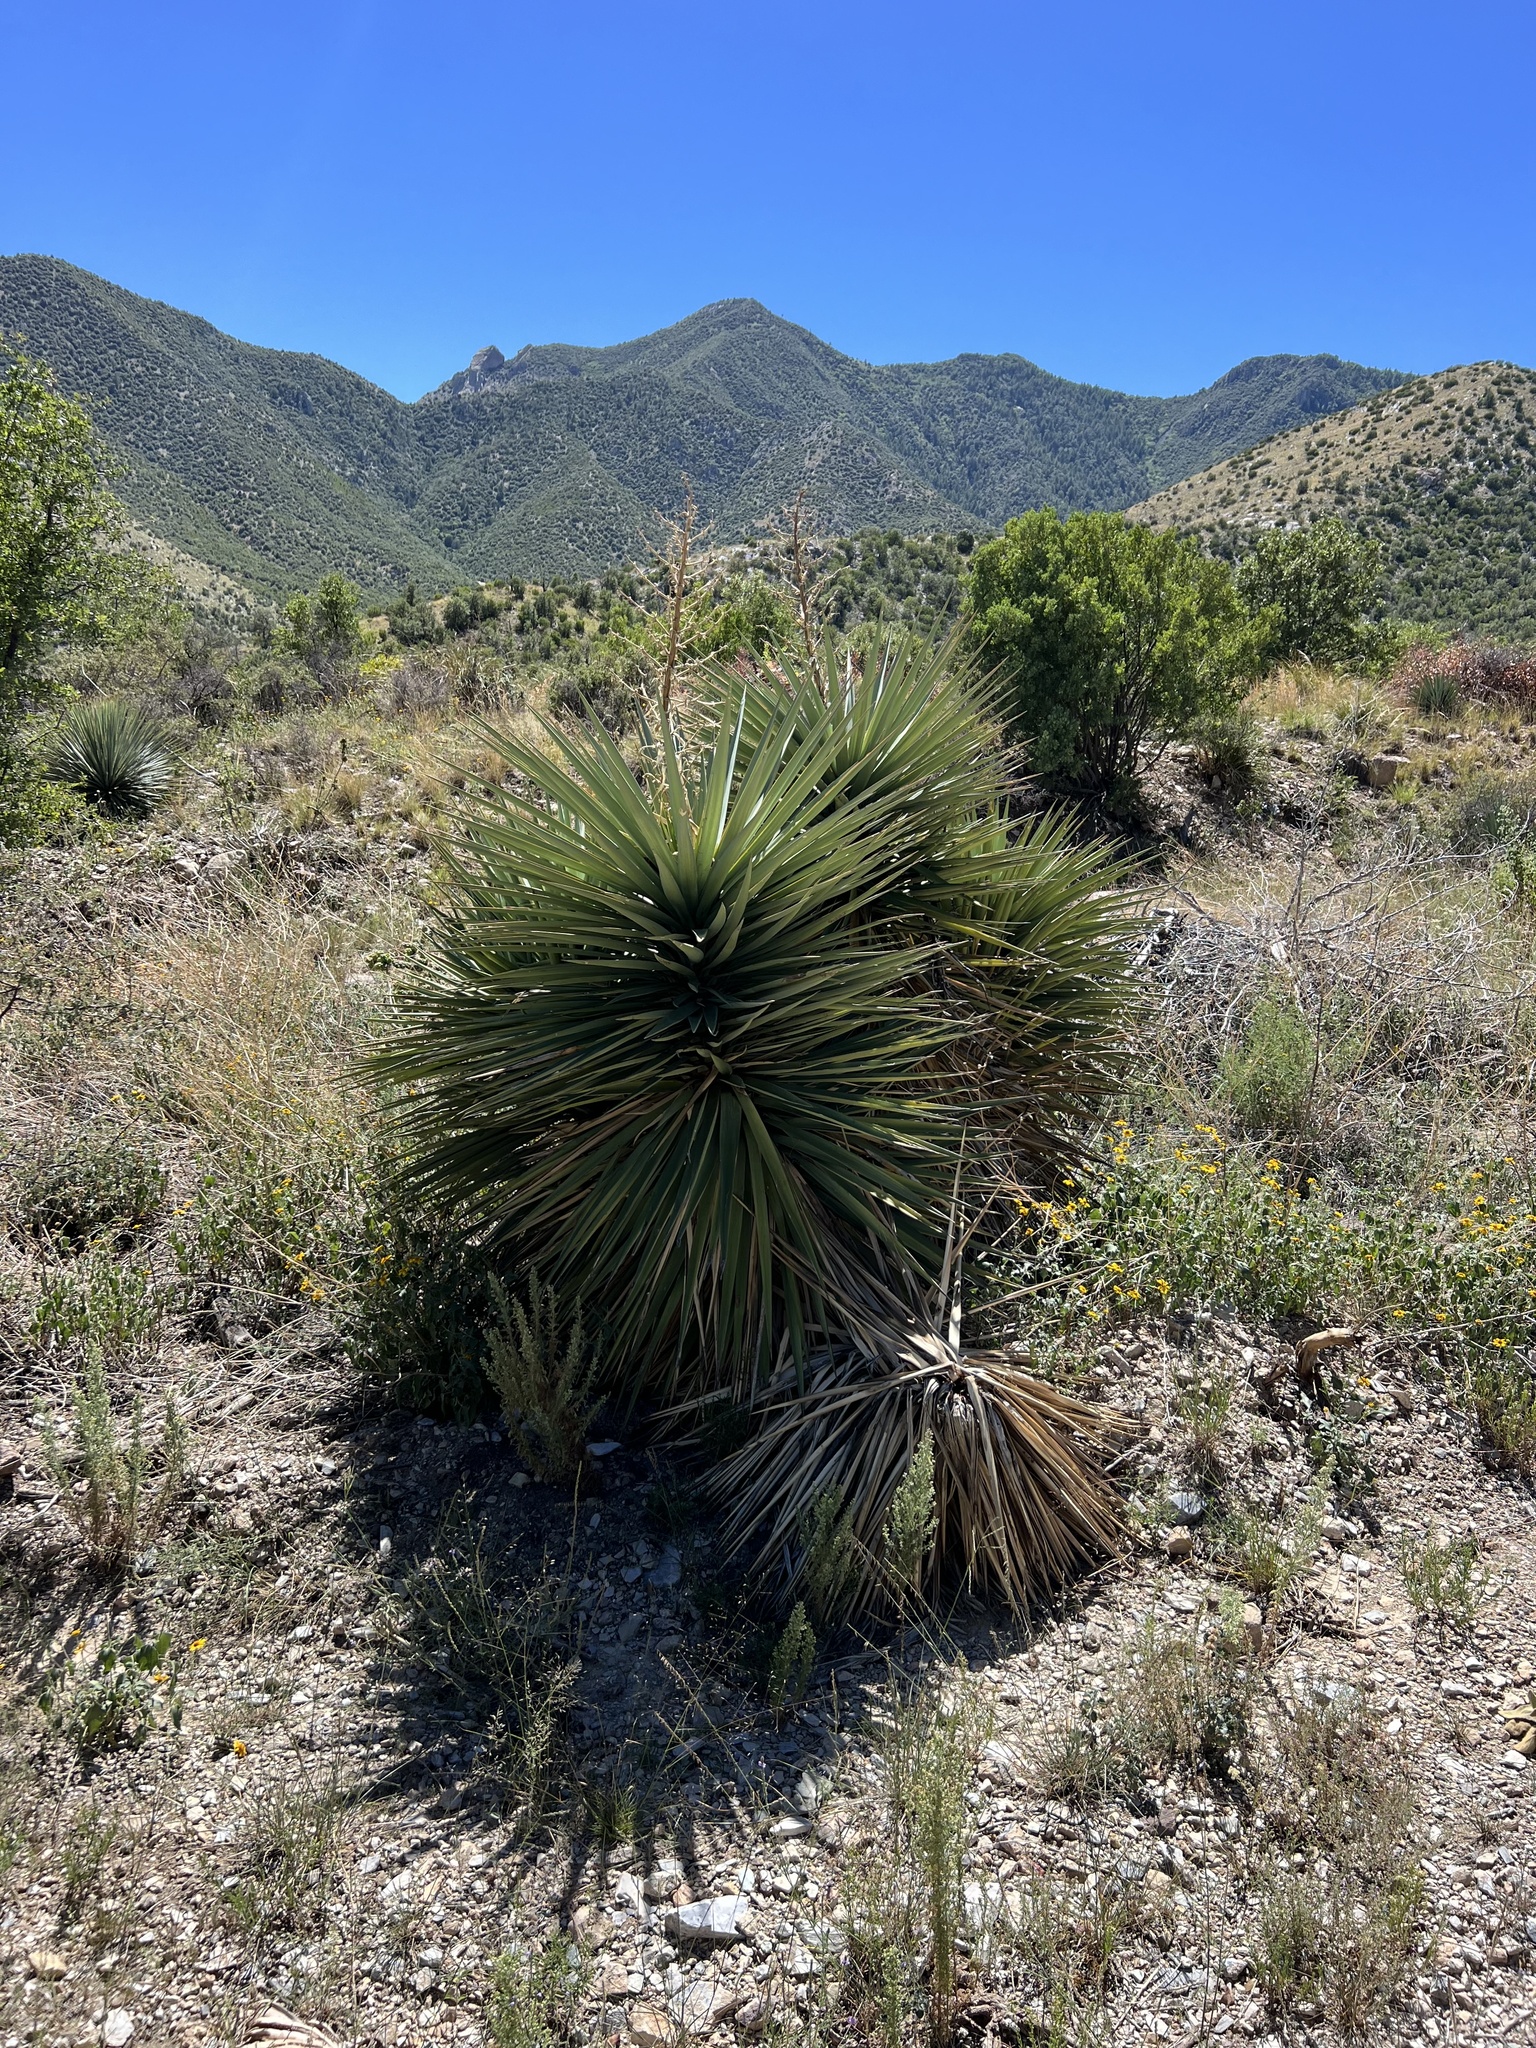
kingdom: Plantae
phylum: Tracheophyta
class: Liliopsida
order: Asparagales
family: Asparagaceae
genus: Yucca
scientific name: Yucca madrensis
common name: Hoary yucca
